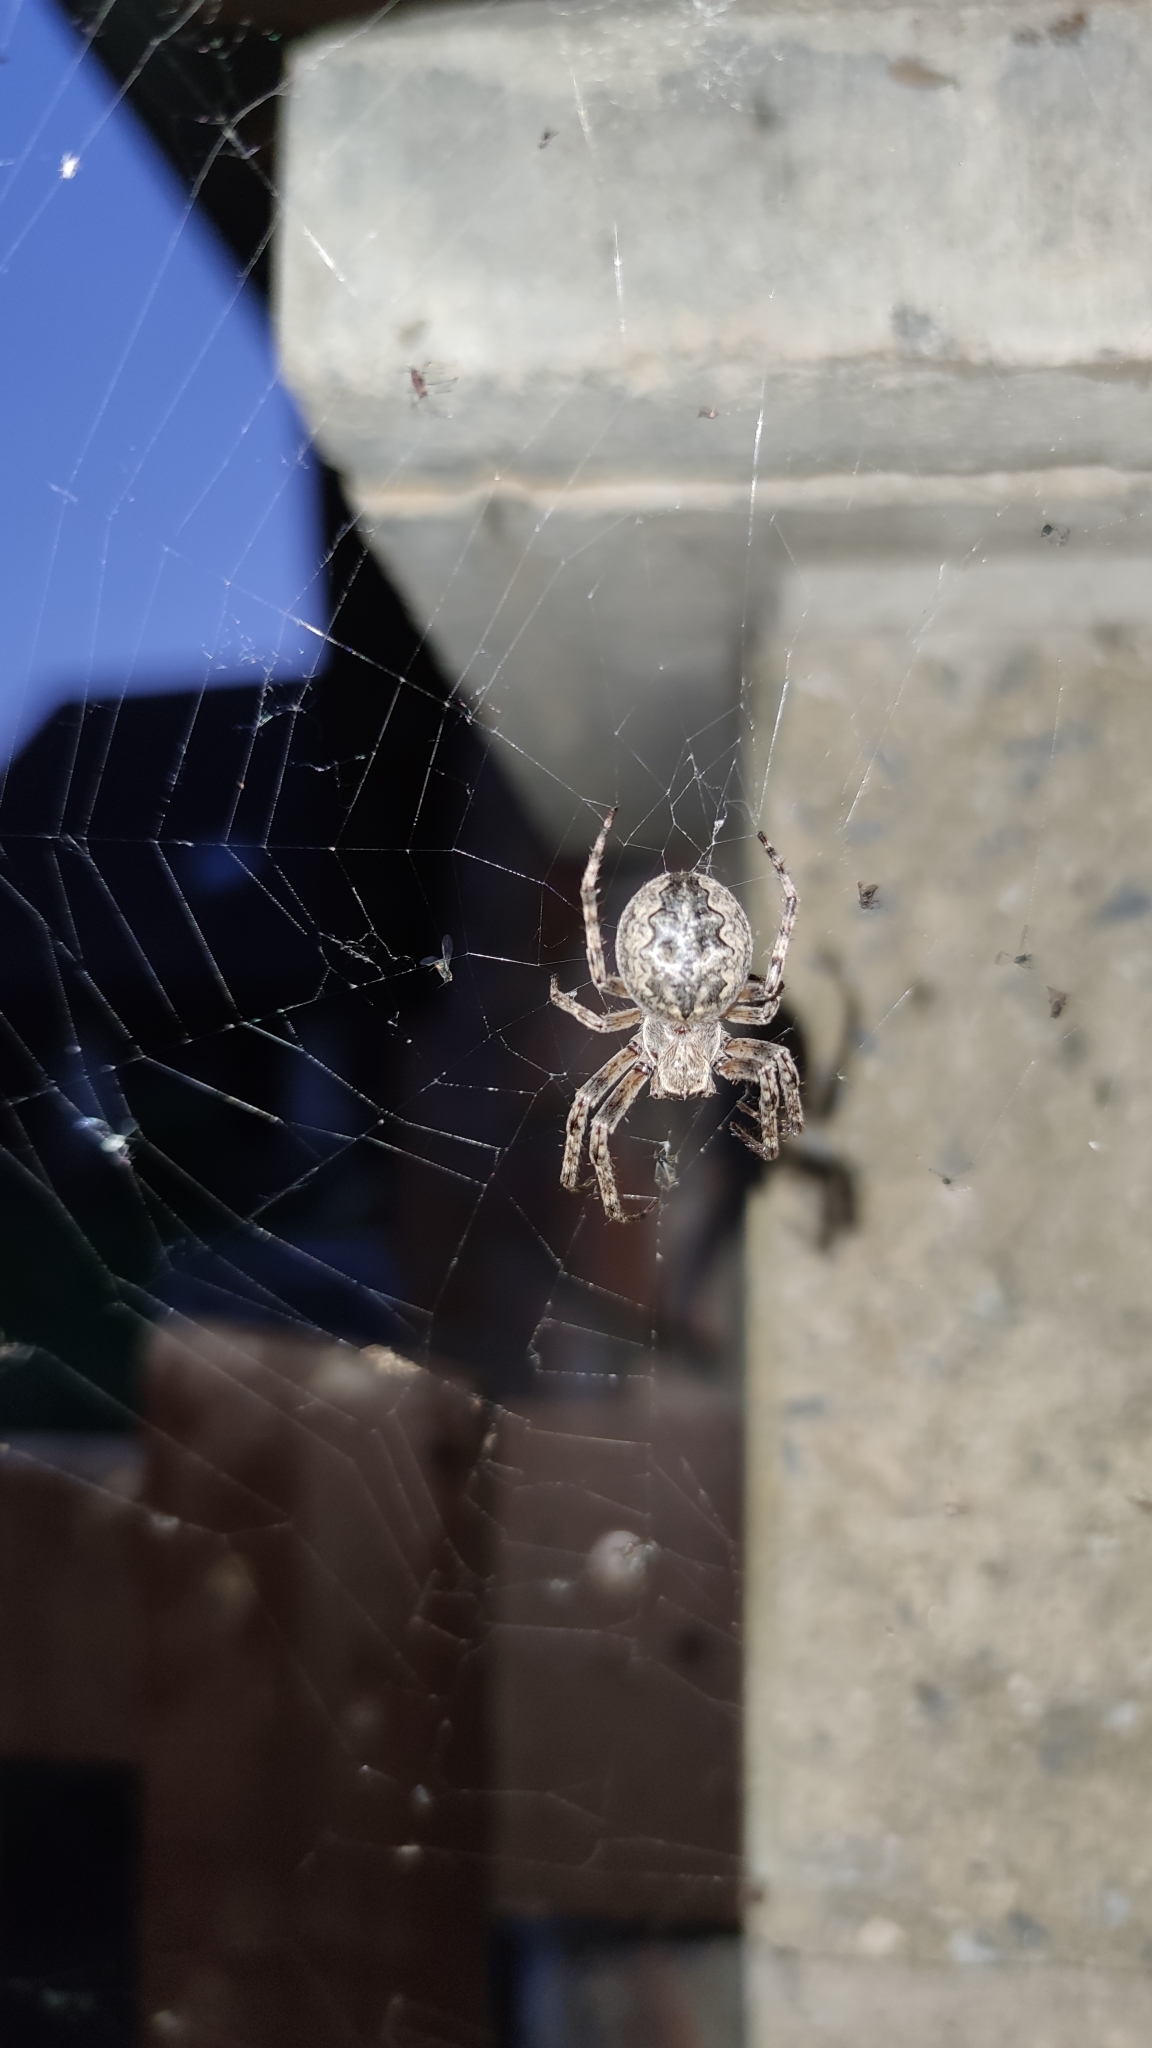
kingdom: Animalia
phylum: Arthropoda
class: Arachnida
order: Araneae
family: Araneidae
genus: Larinioides
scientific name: Larinioides ixobolus
